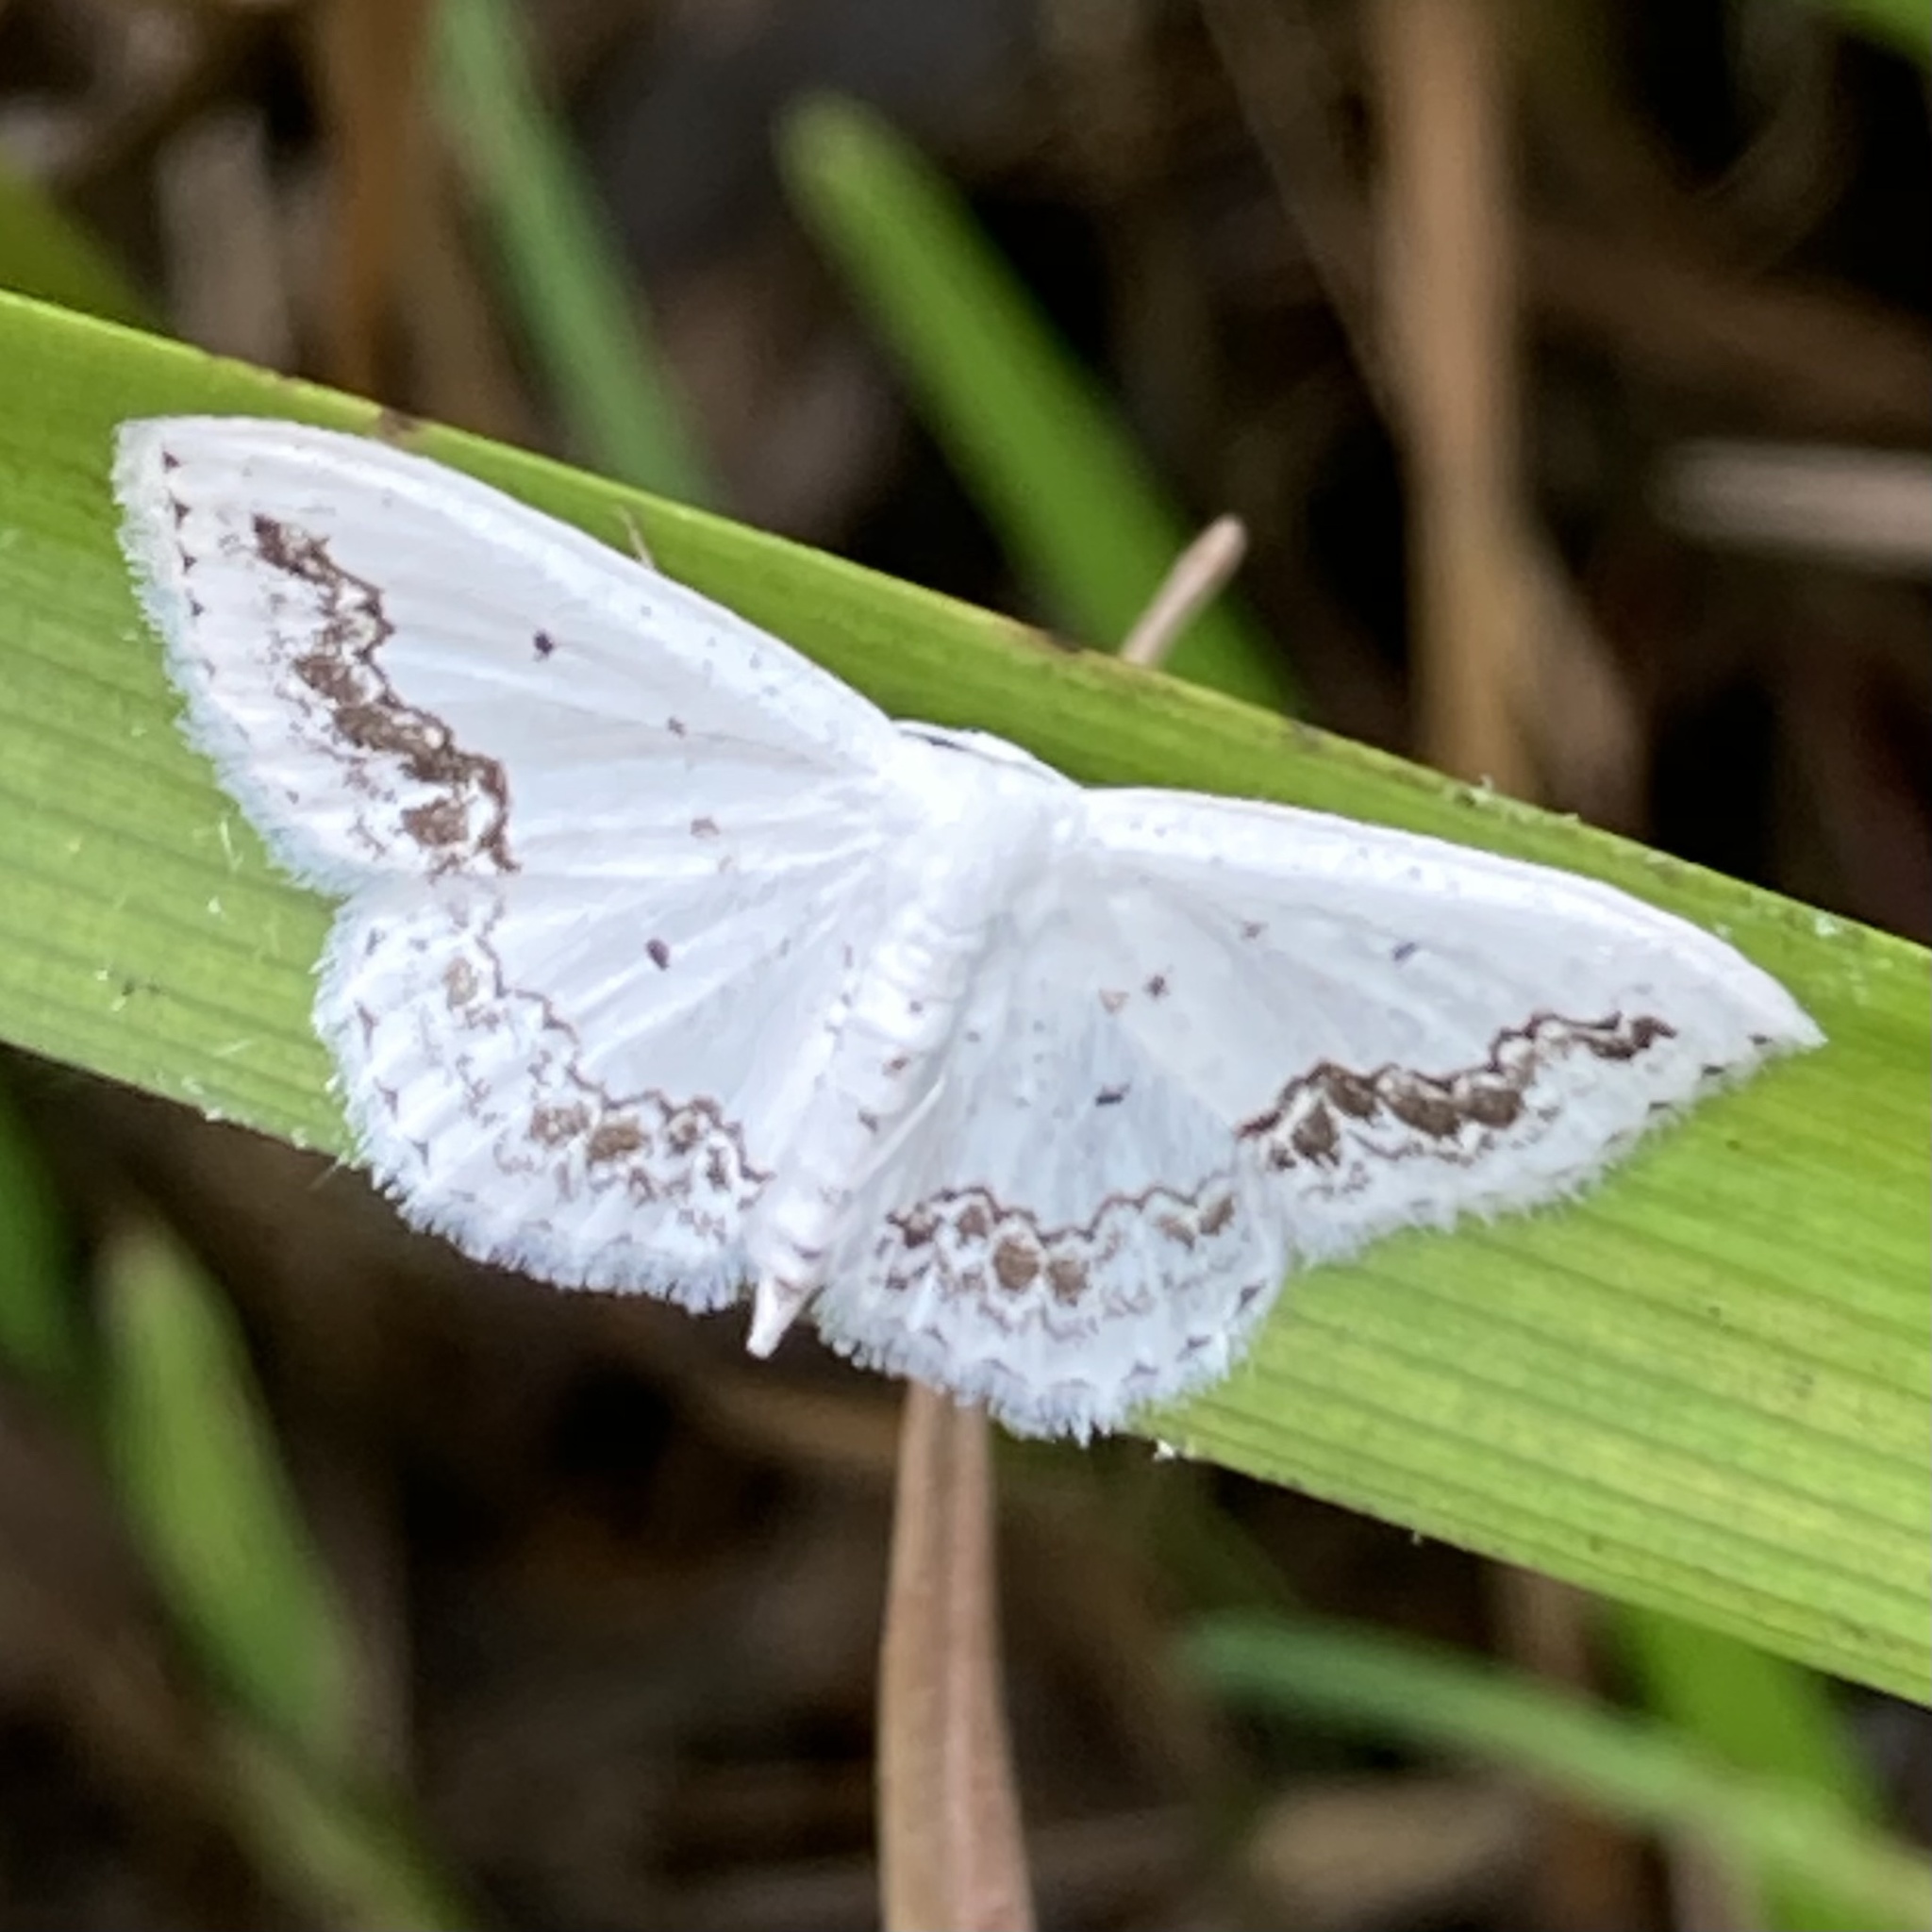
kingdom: Animalia
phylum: Arthropoda
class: Insecta
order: Lepidoptera
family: Geometridae
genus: Scopula
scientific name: Scopula limboundata
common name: Large lace border
